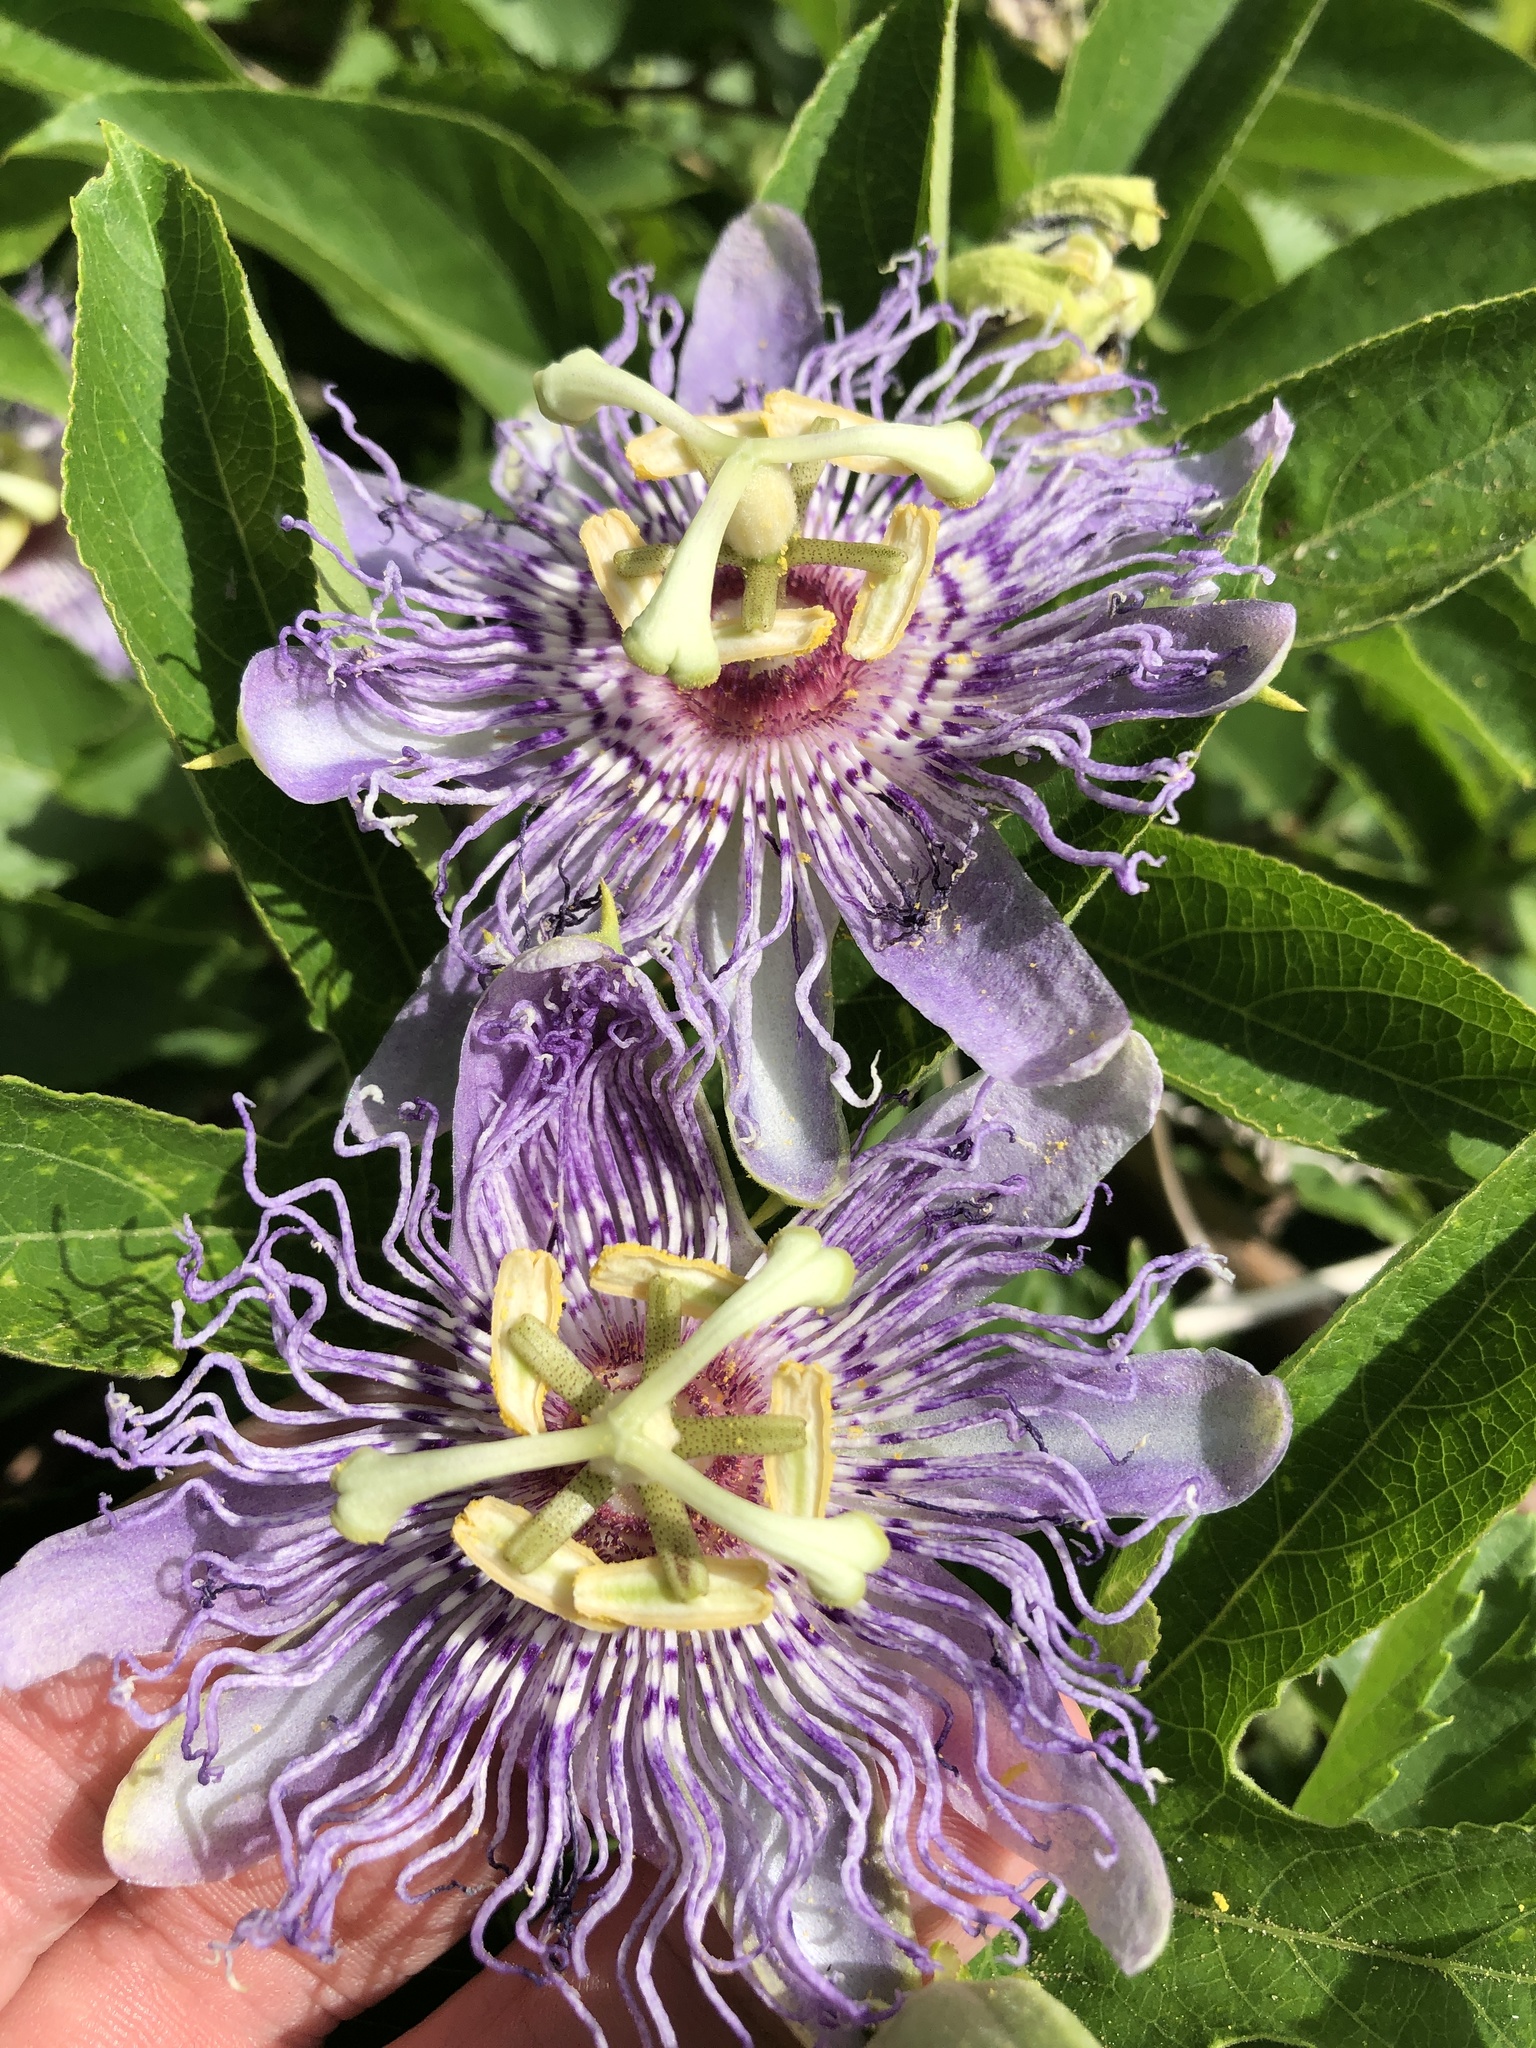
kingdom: Plantae
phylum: Tracheophyta
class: Magnoliopsida
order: Malpighiales
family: Passifloraceae
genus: Passiflora
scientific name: Passiflora incarnata
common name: Apricot-vine
